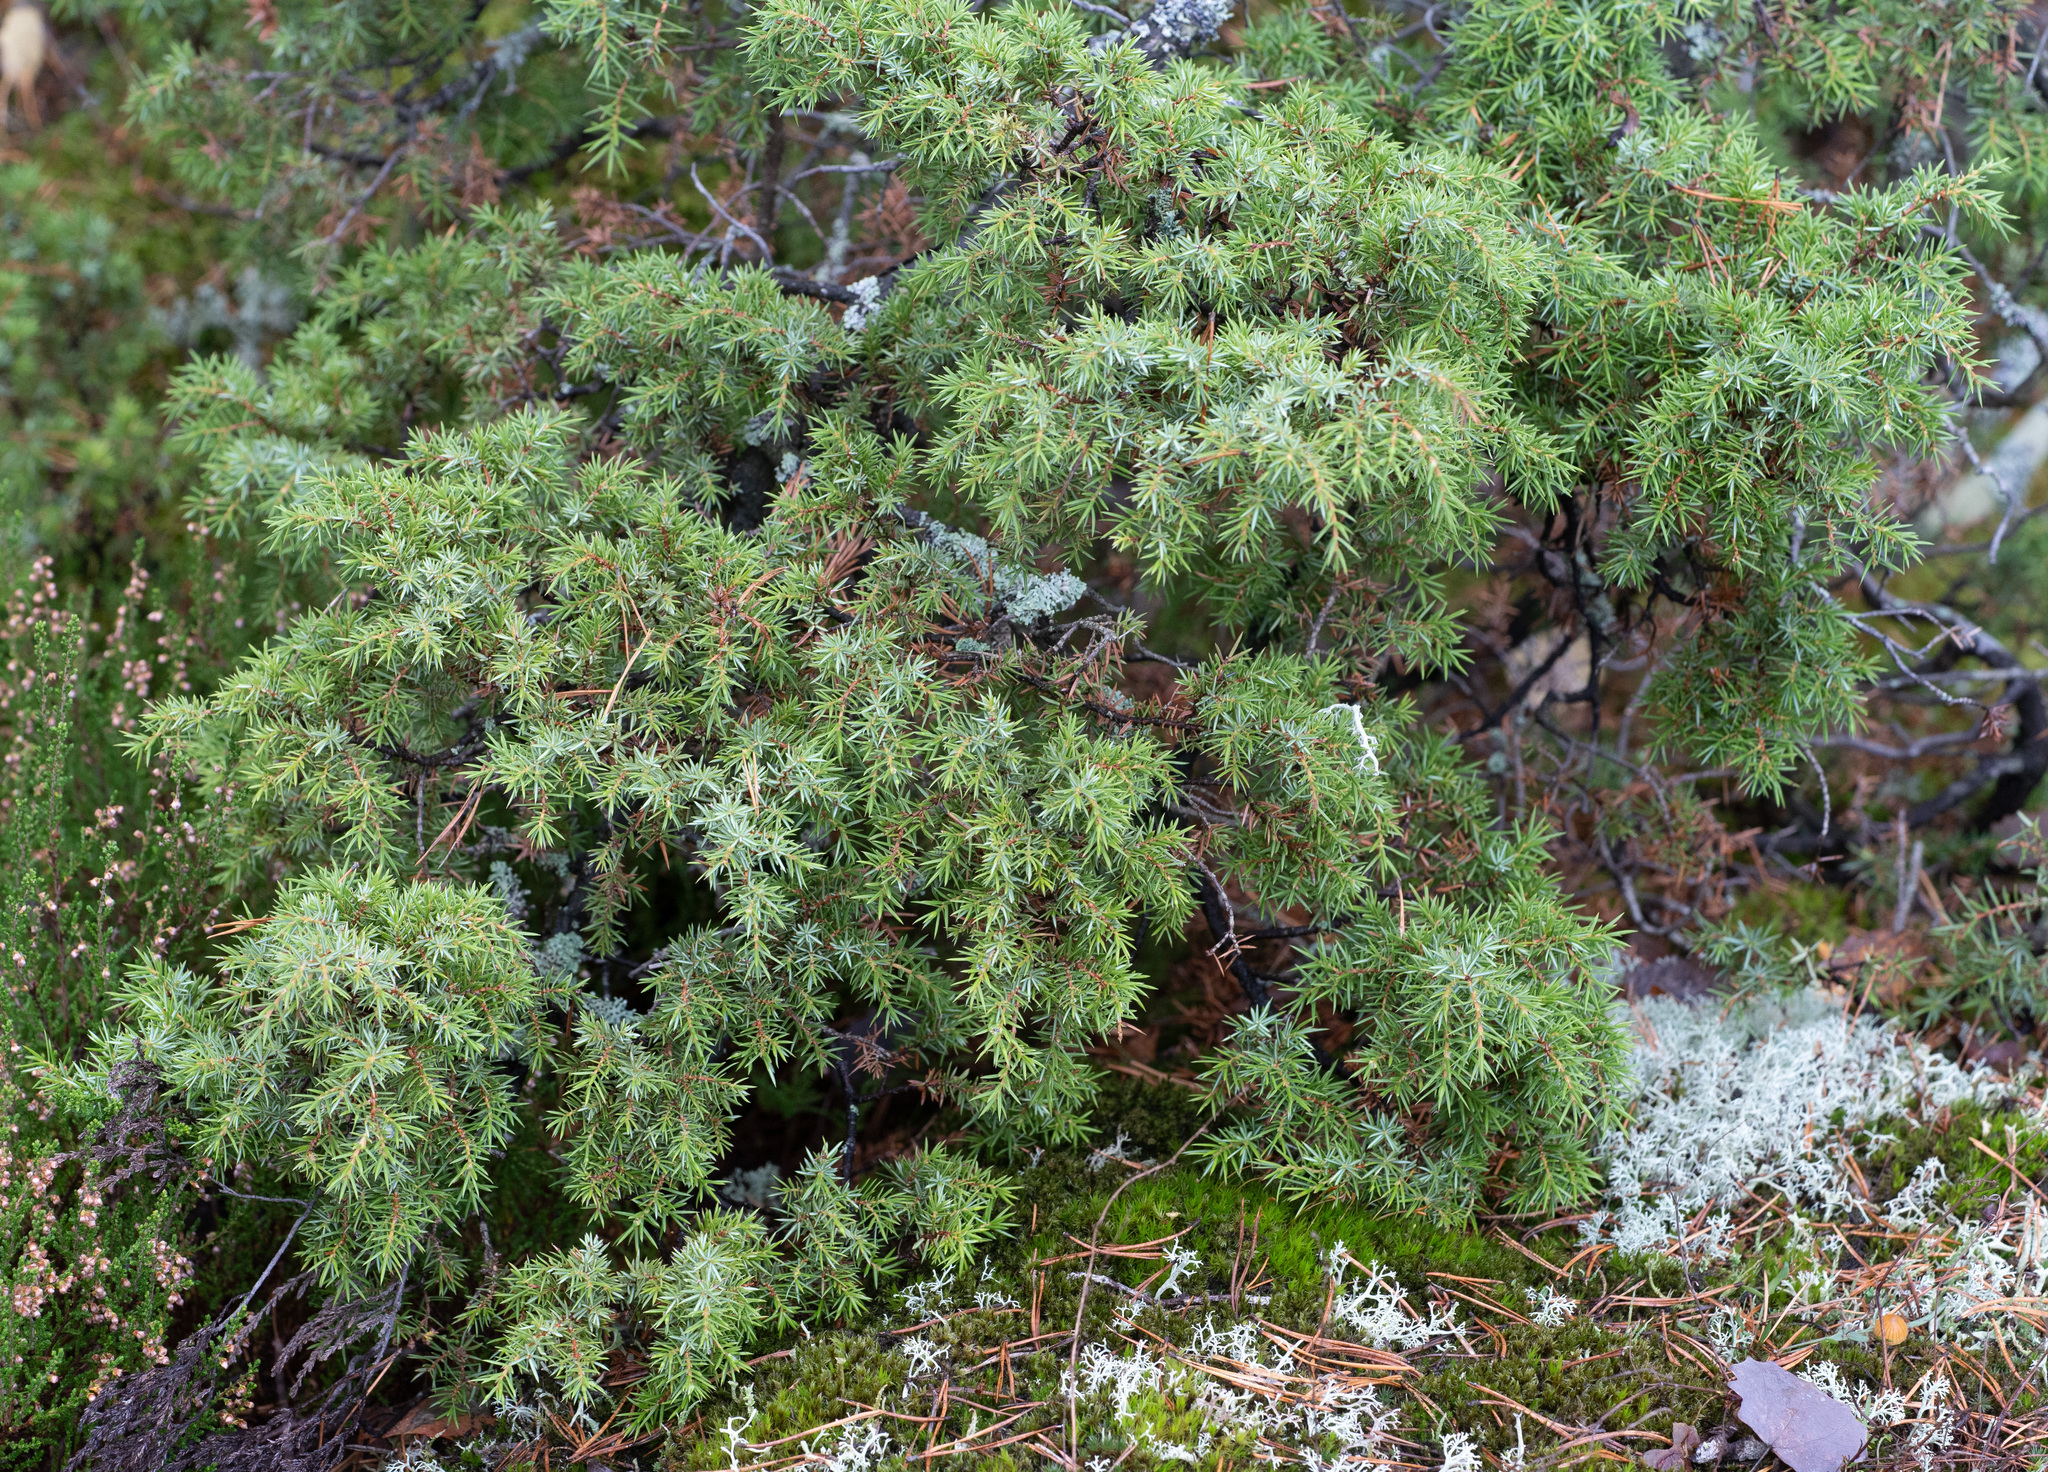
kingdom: Plantae
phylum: Tracheophyta
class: Pinopsida
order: Pinales
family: Cupressaceae
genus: Juniperus
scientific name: Juniperus communis
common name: Common juniper
